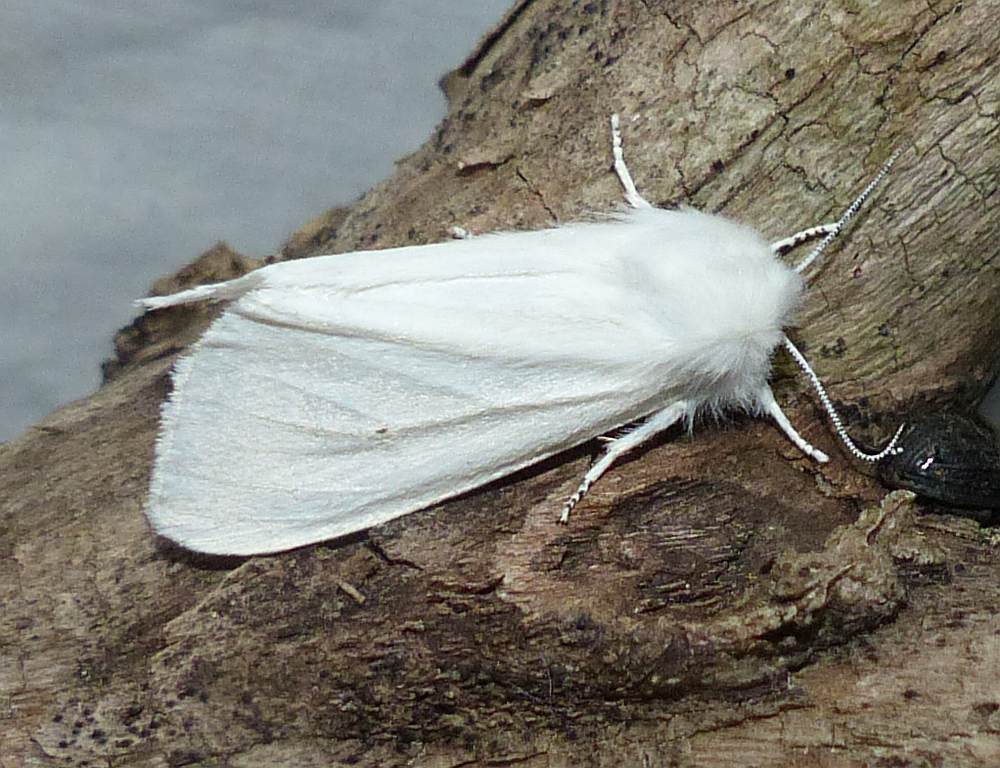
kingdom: Animalia
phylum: Arthropoda
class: Insecta
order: Lepidoptera
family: Erebidae
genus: Spilosoma
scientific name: Spilosoma virginica
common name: Virginia tiger moth
